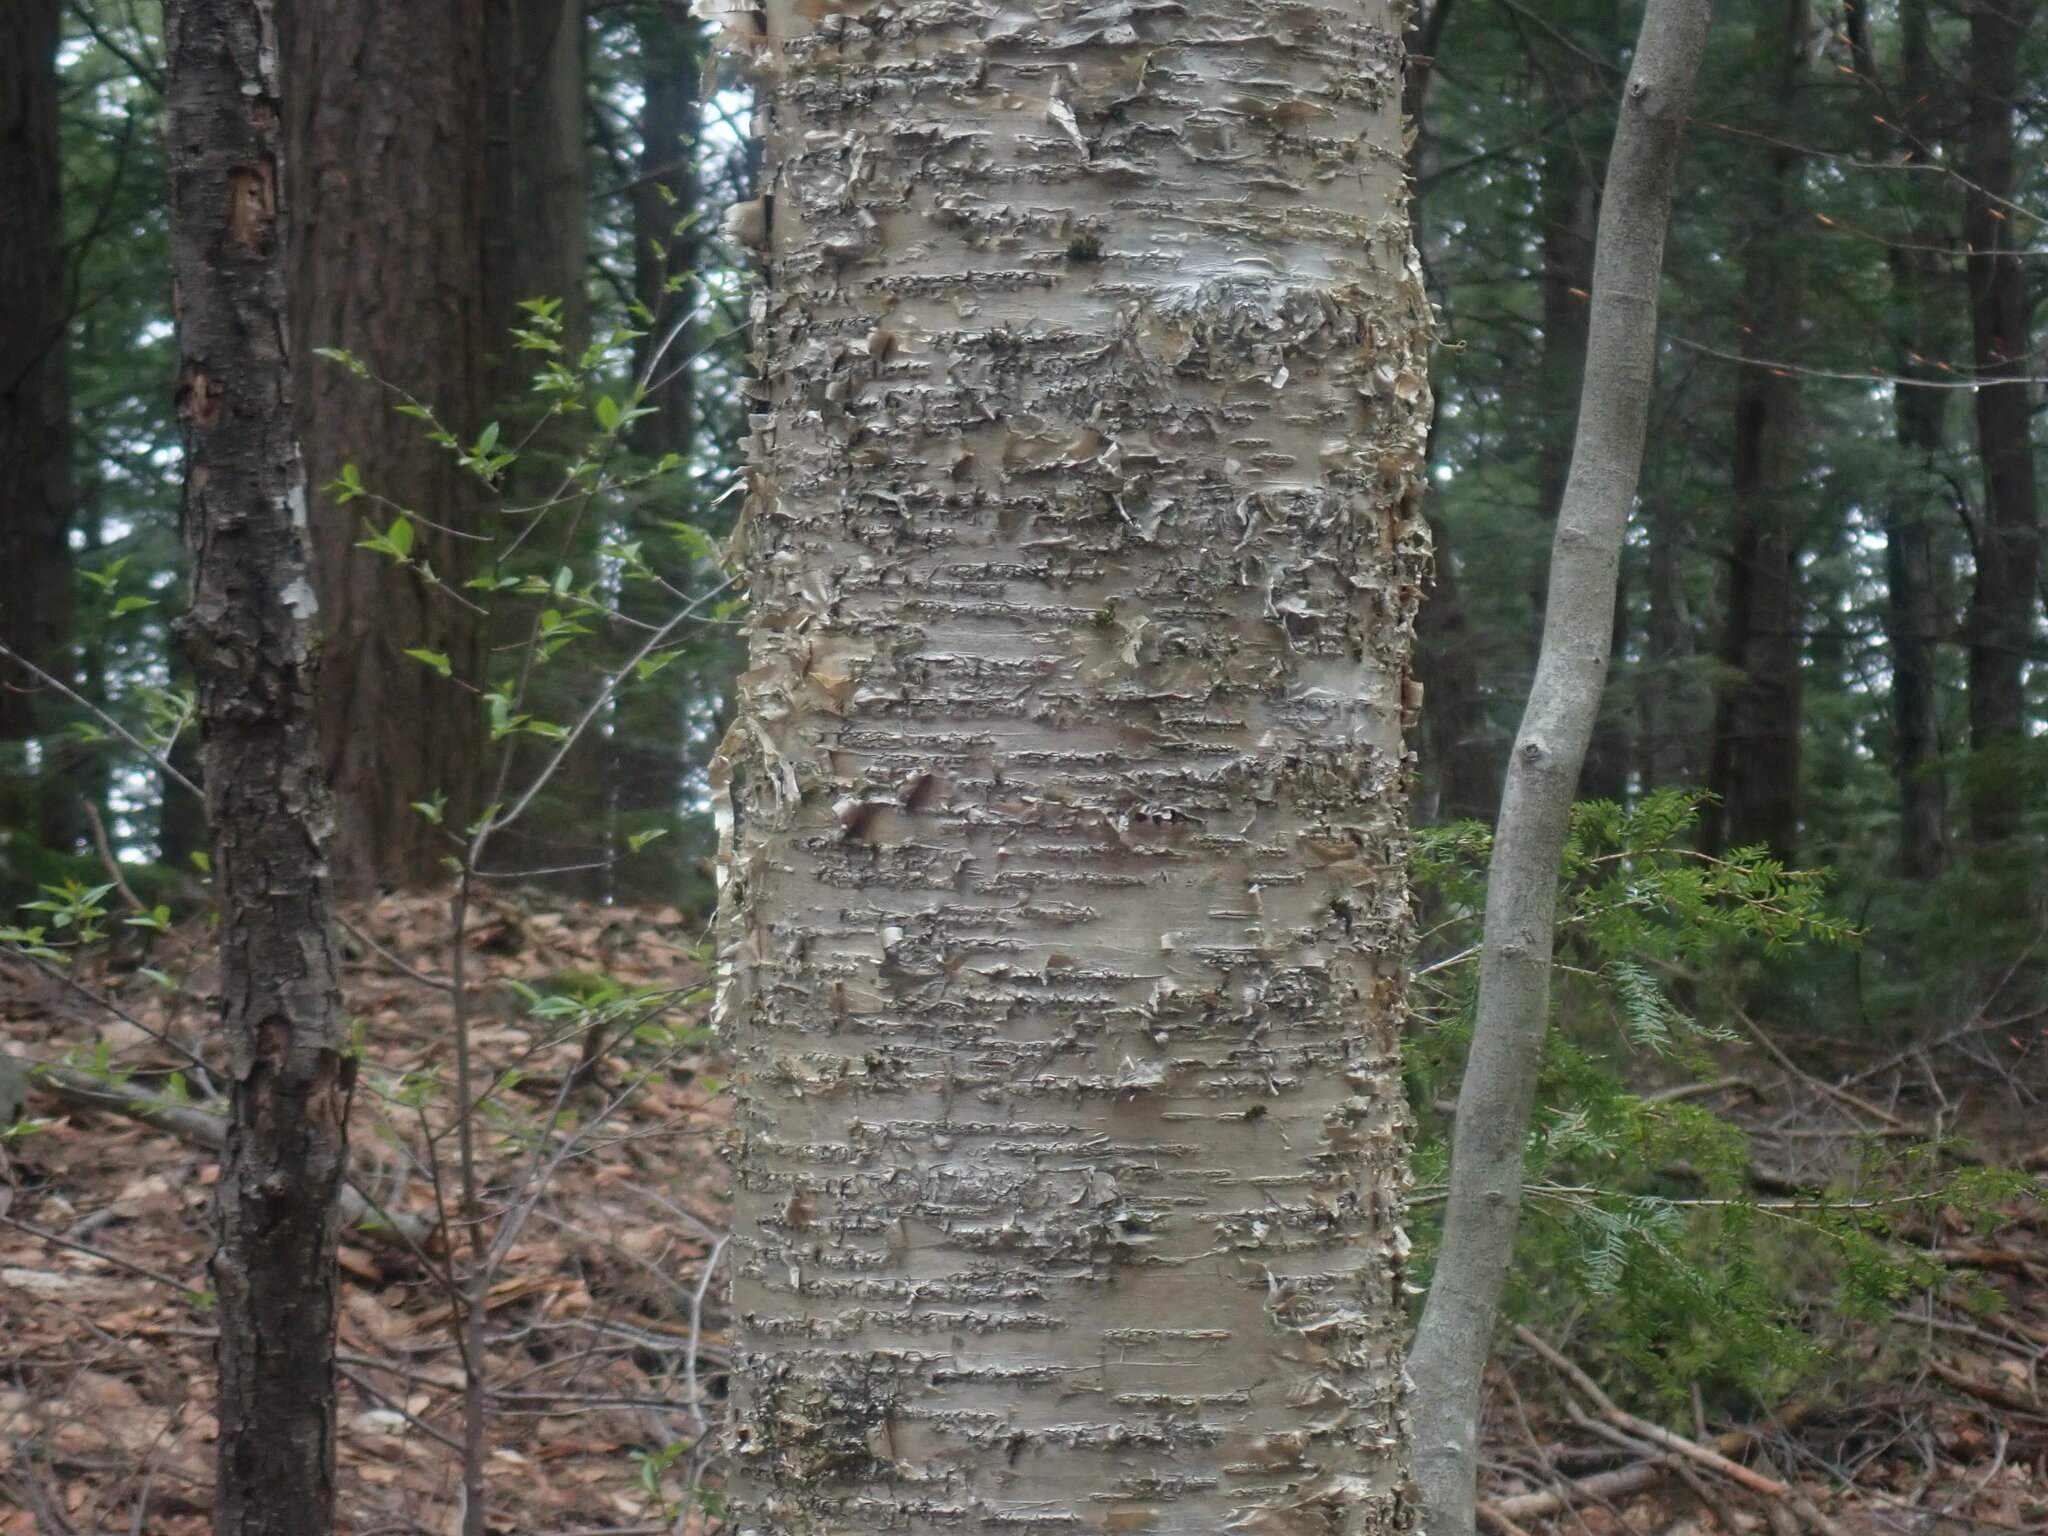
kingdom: Plantae
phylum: Tracheophyta
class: Magnoliopsida
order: Fagales
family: Betulaceae
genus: Betula
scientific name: Betula alleghaniensis
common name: Yellow birch
